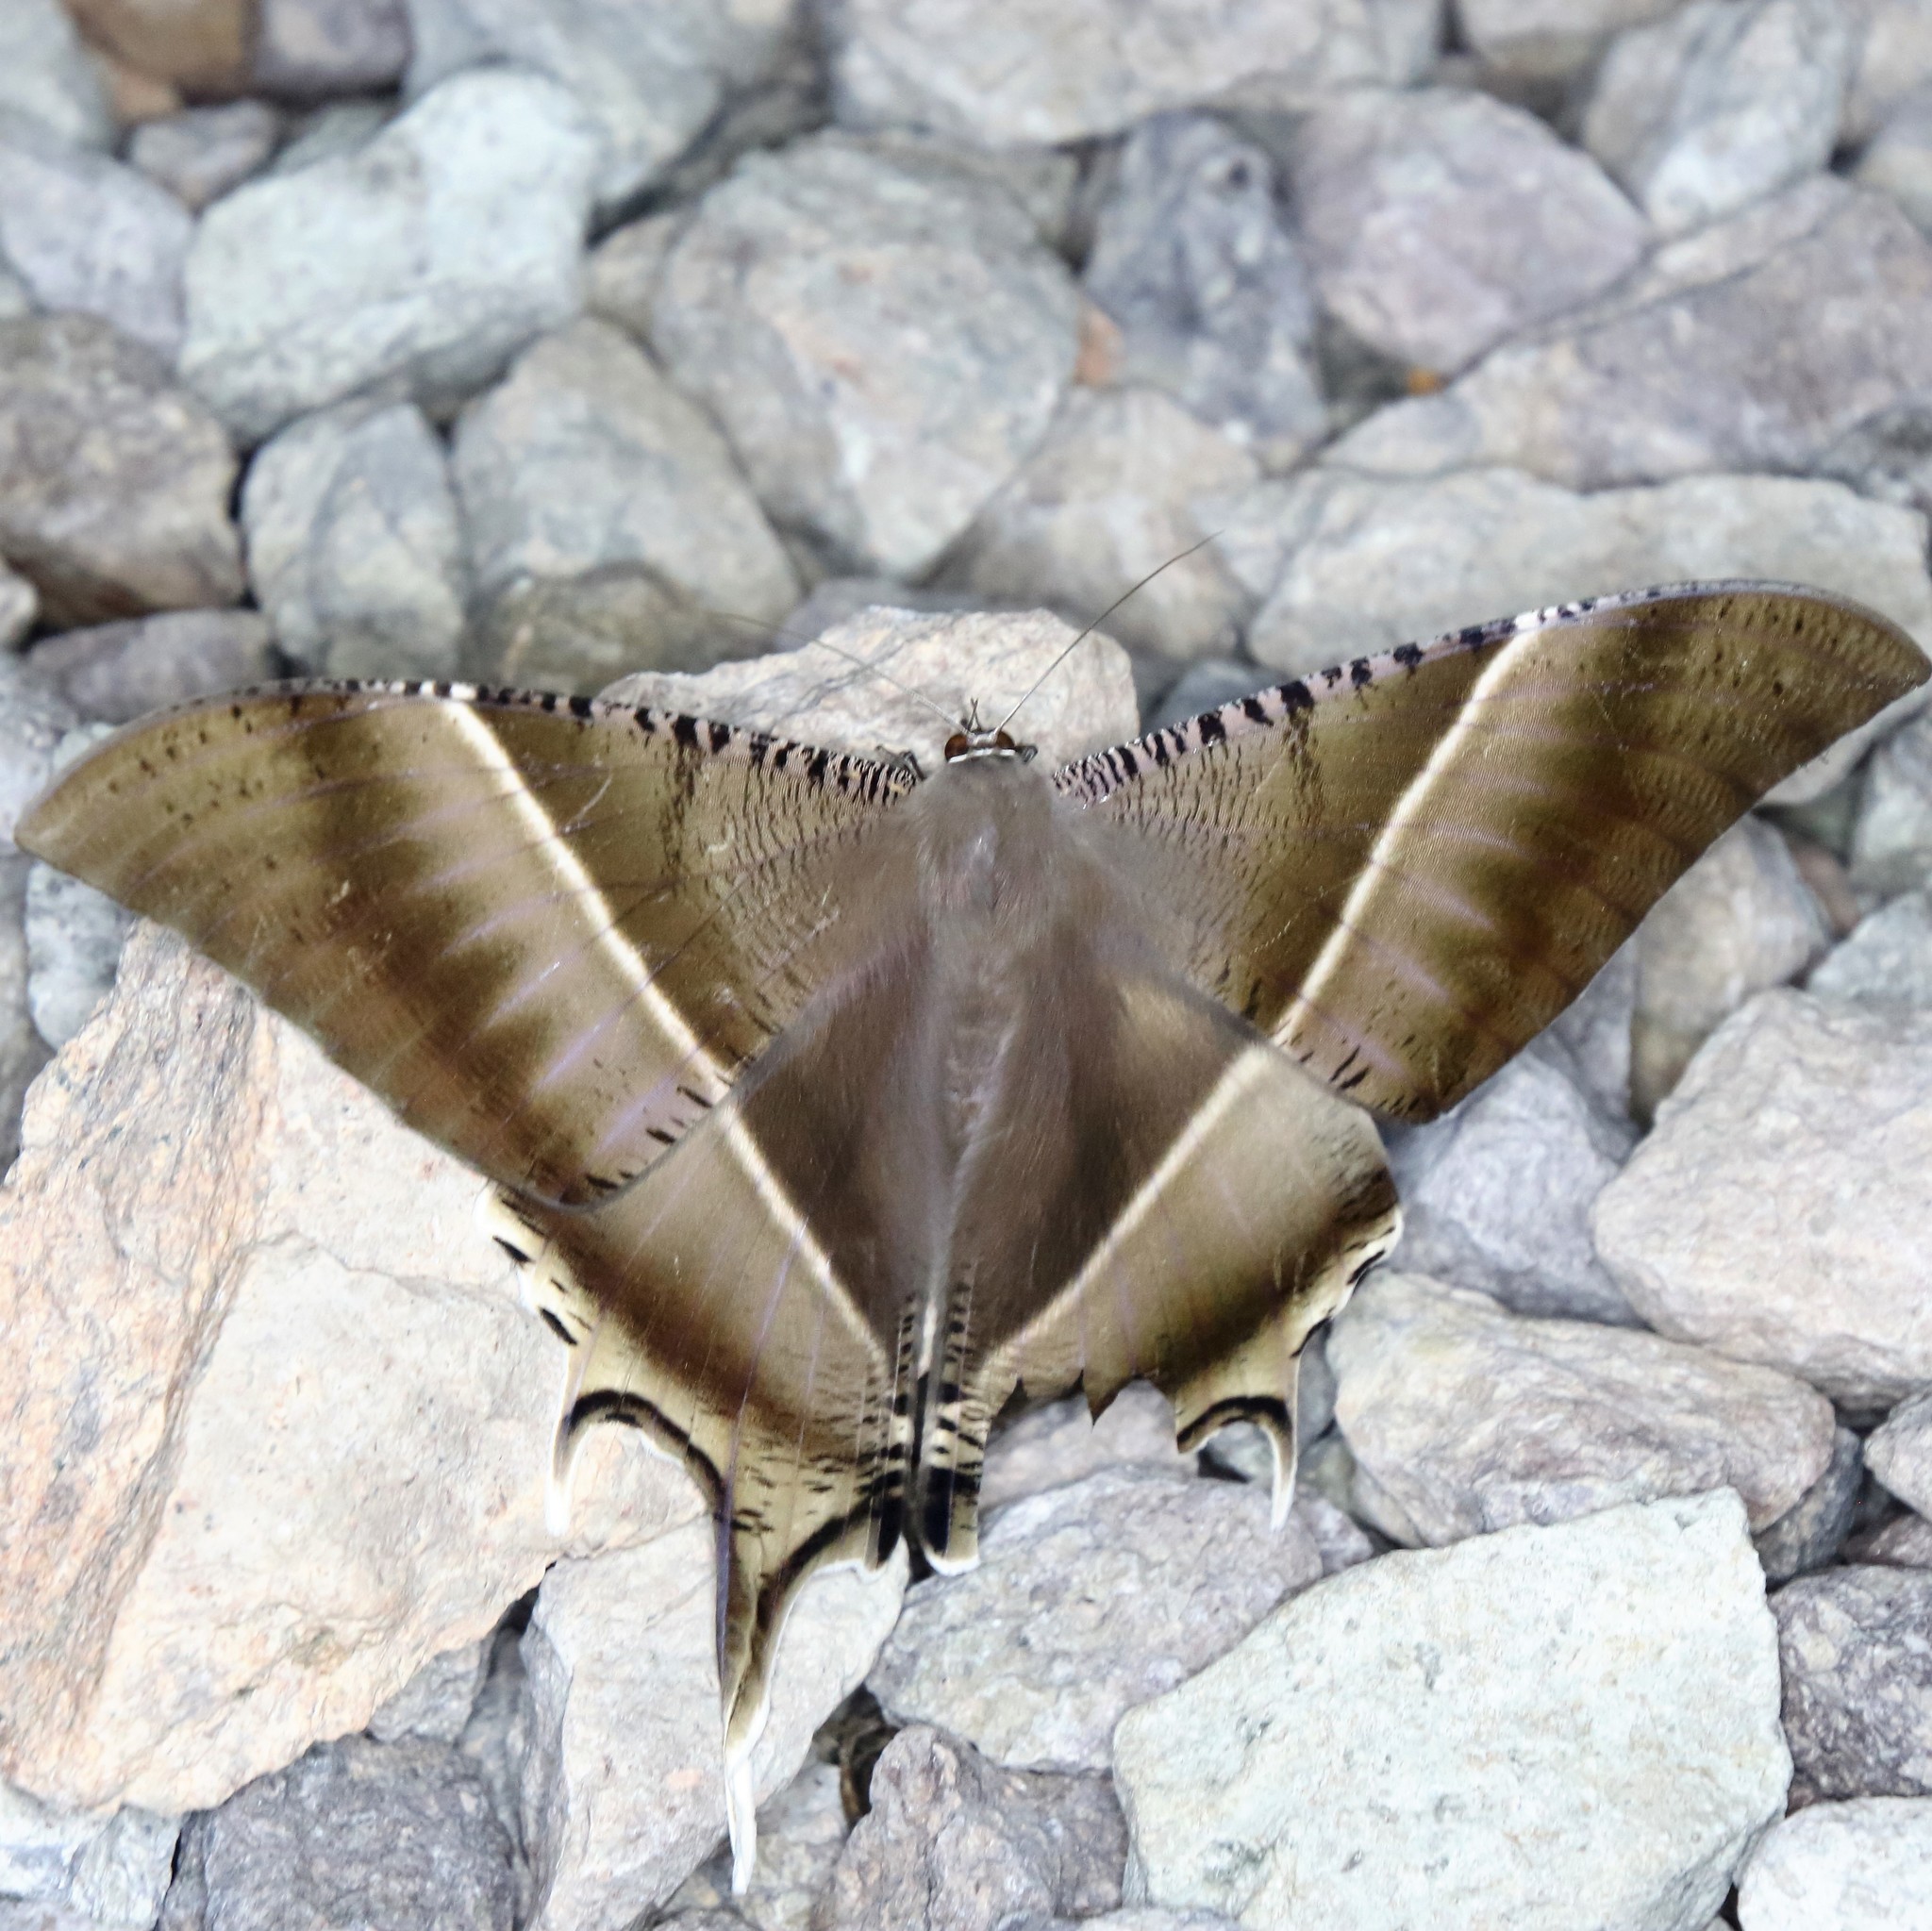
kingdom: Animalia
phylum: Arthropoda
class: Insecta
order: Lepidoptera
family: Uraniidae
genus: Lyssa
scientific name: Lyssa zampa
